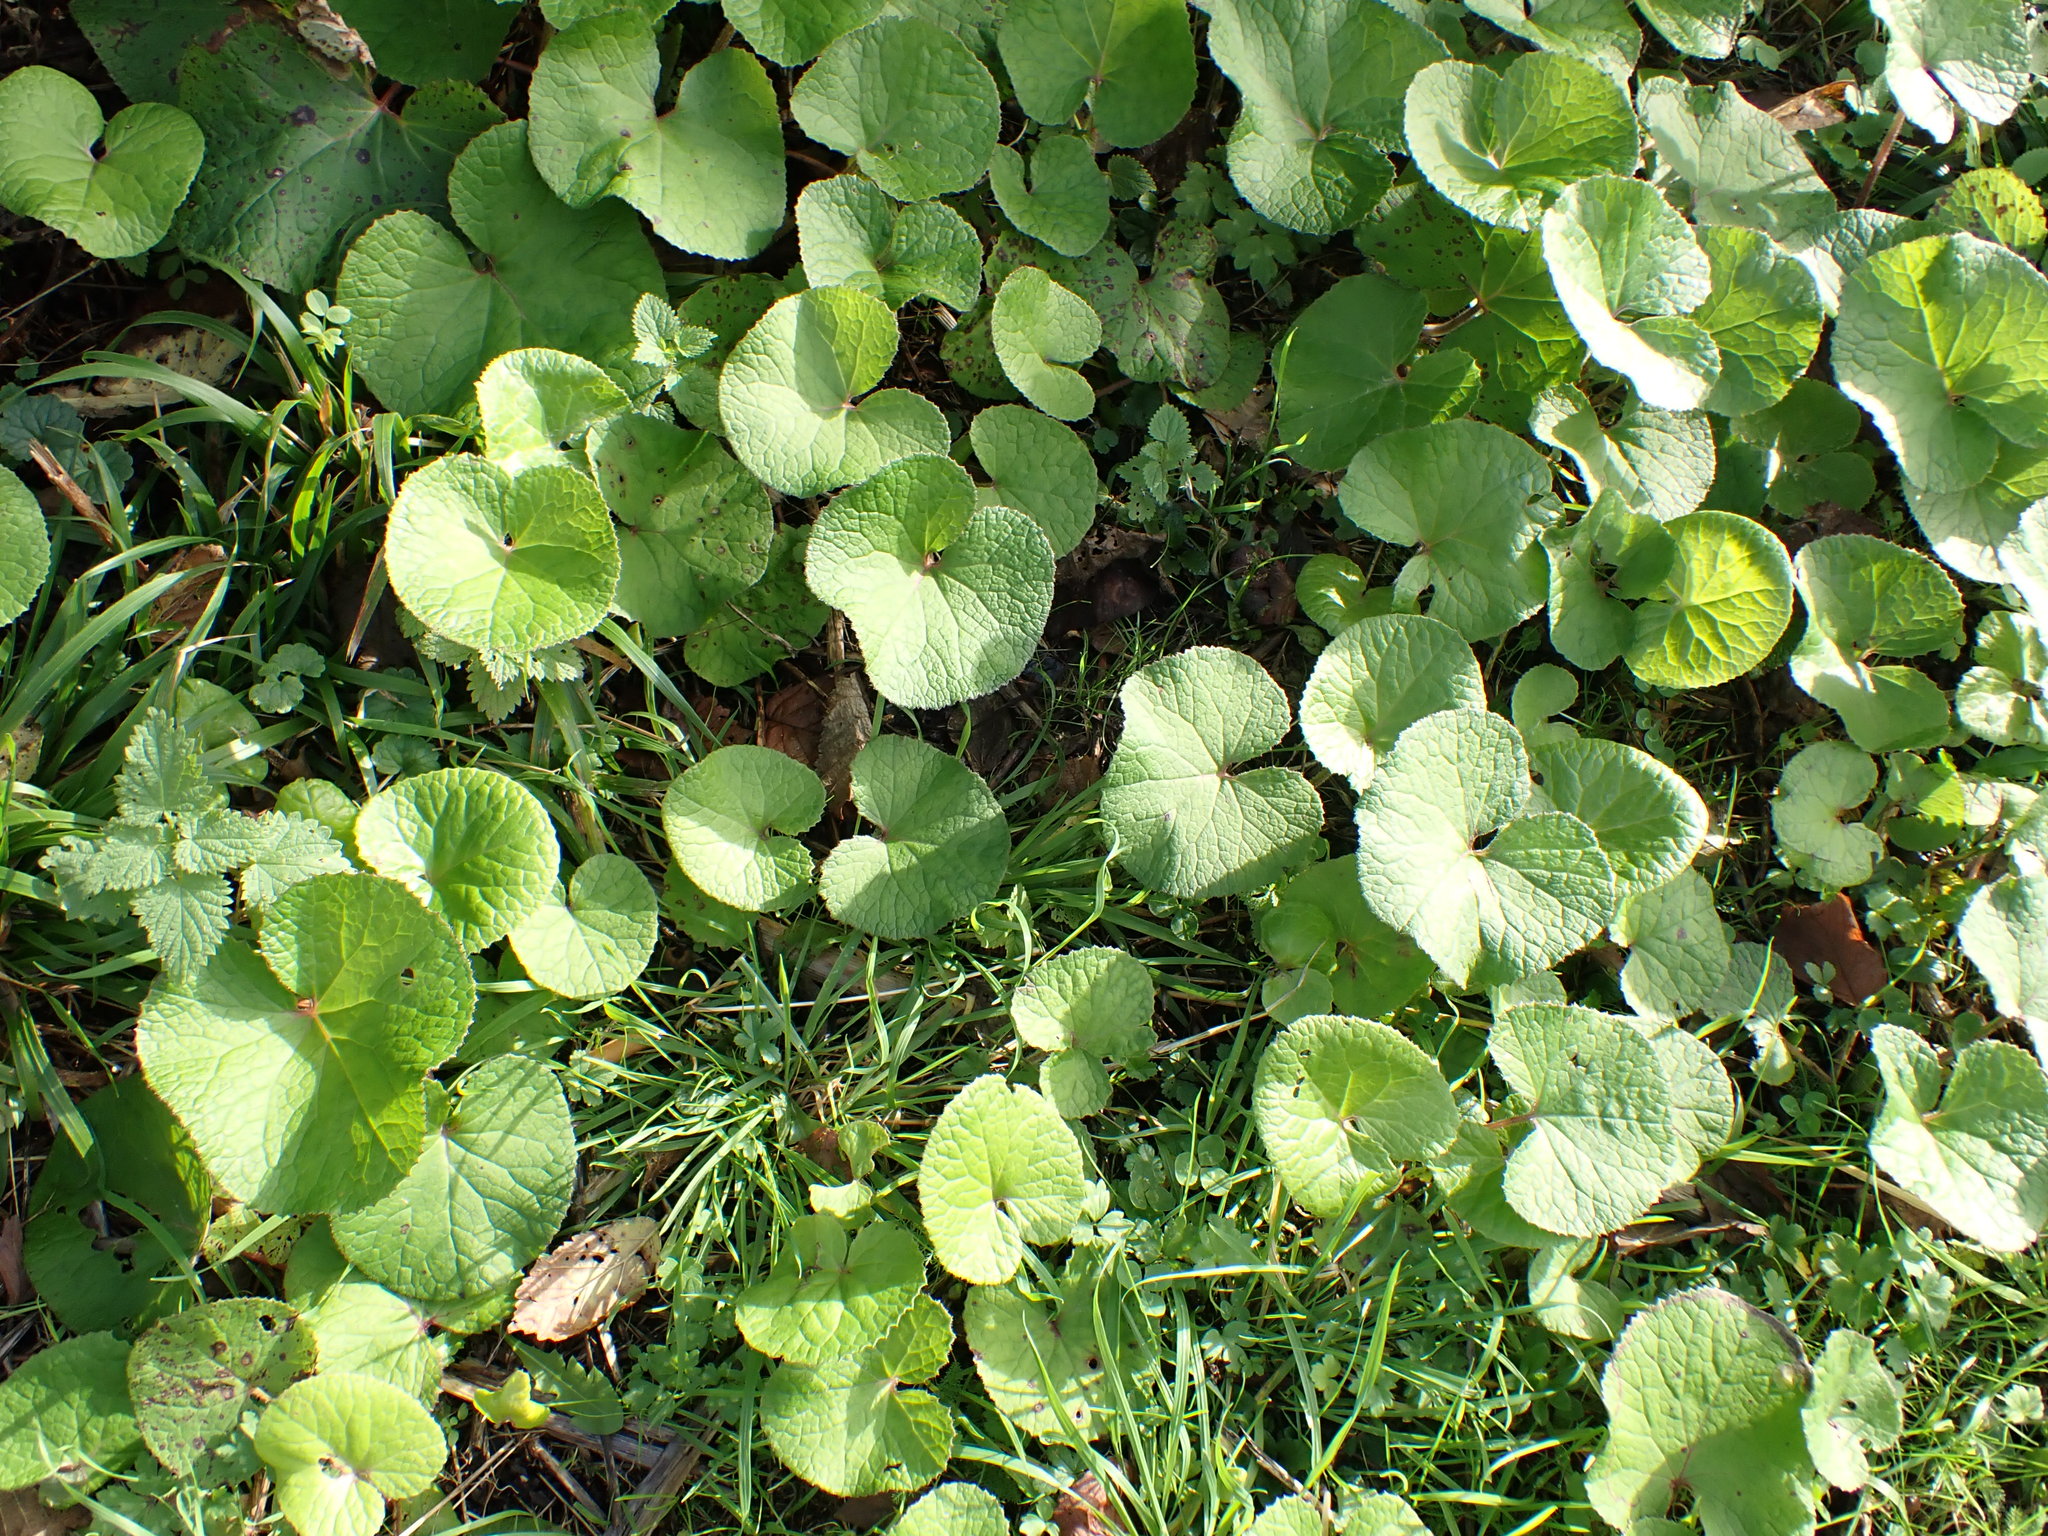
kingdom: Plantae
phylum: Tracheophyta
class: Magnoliopsida
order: Asterales
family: Asteraceae
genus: Petasites
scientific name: Petasites pyrenaicus
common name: Winter heliotrope
